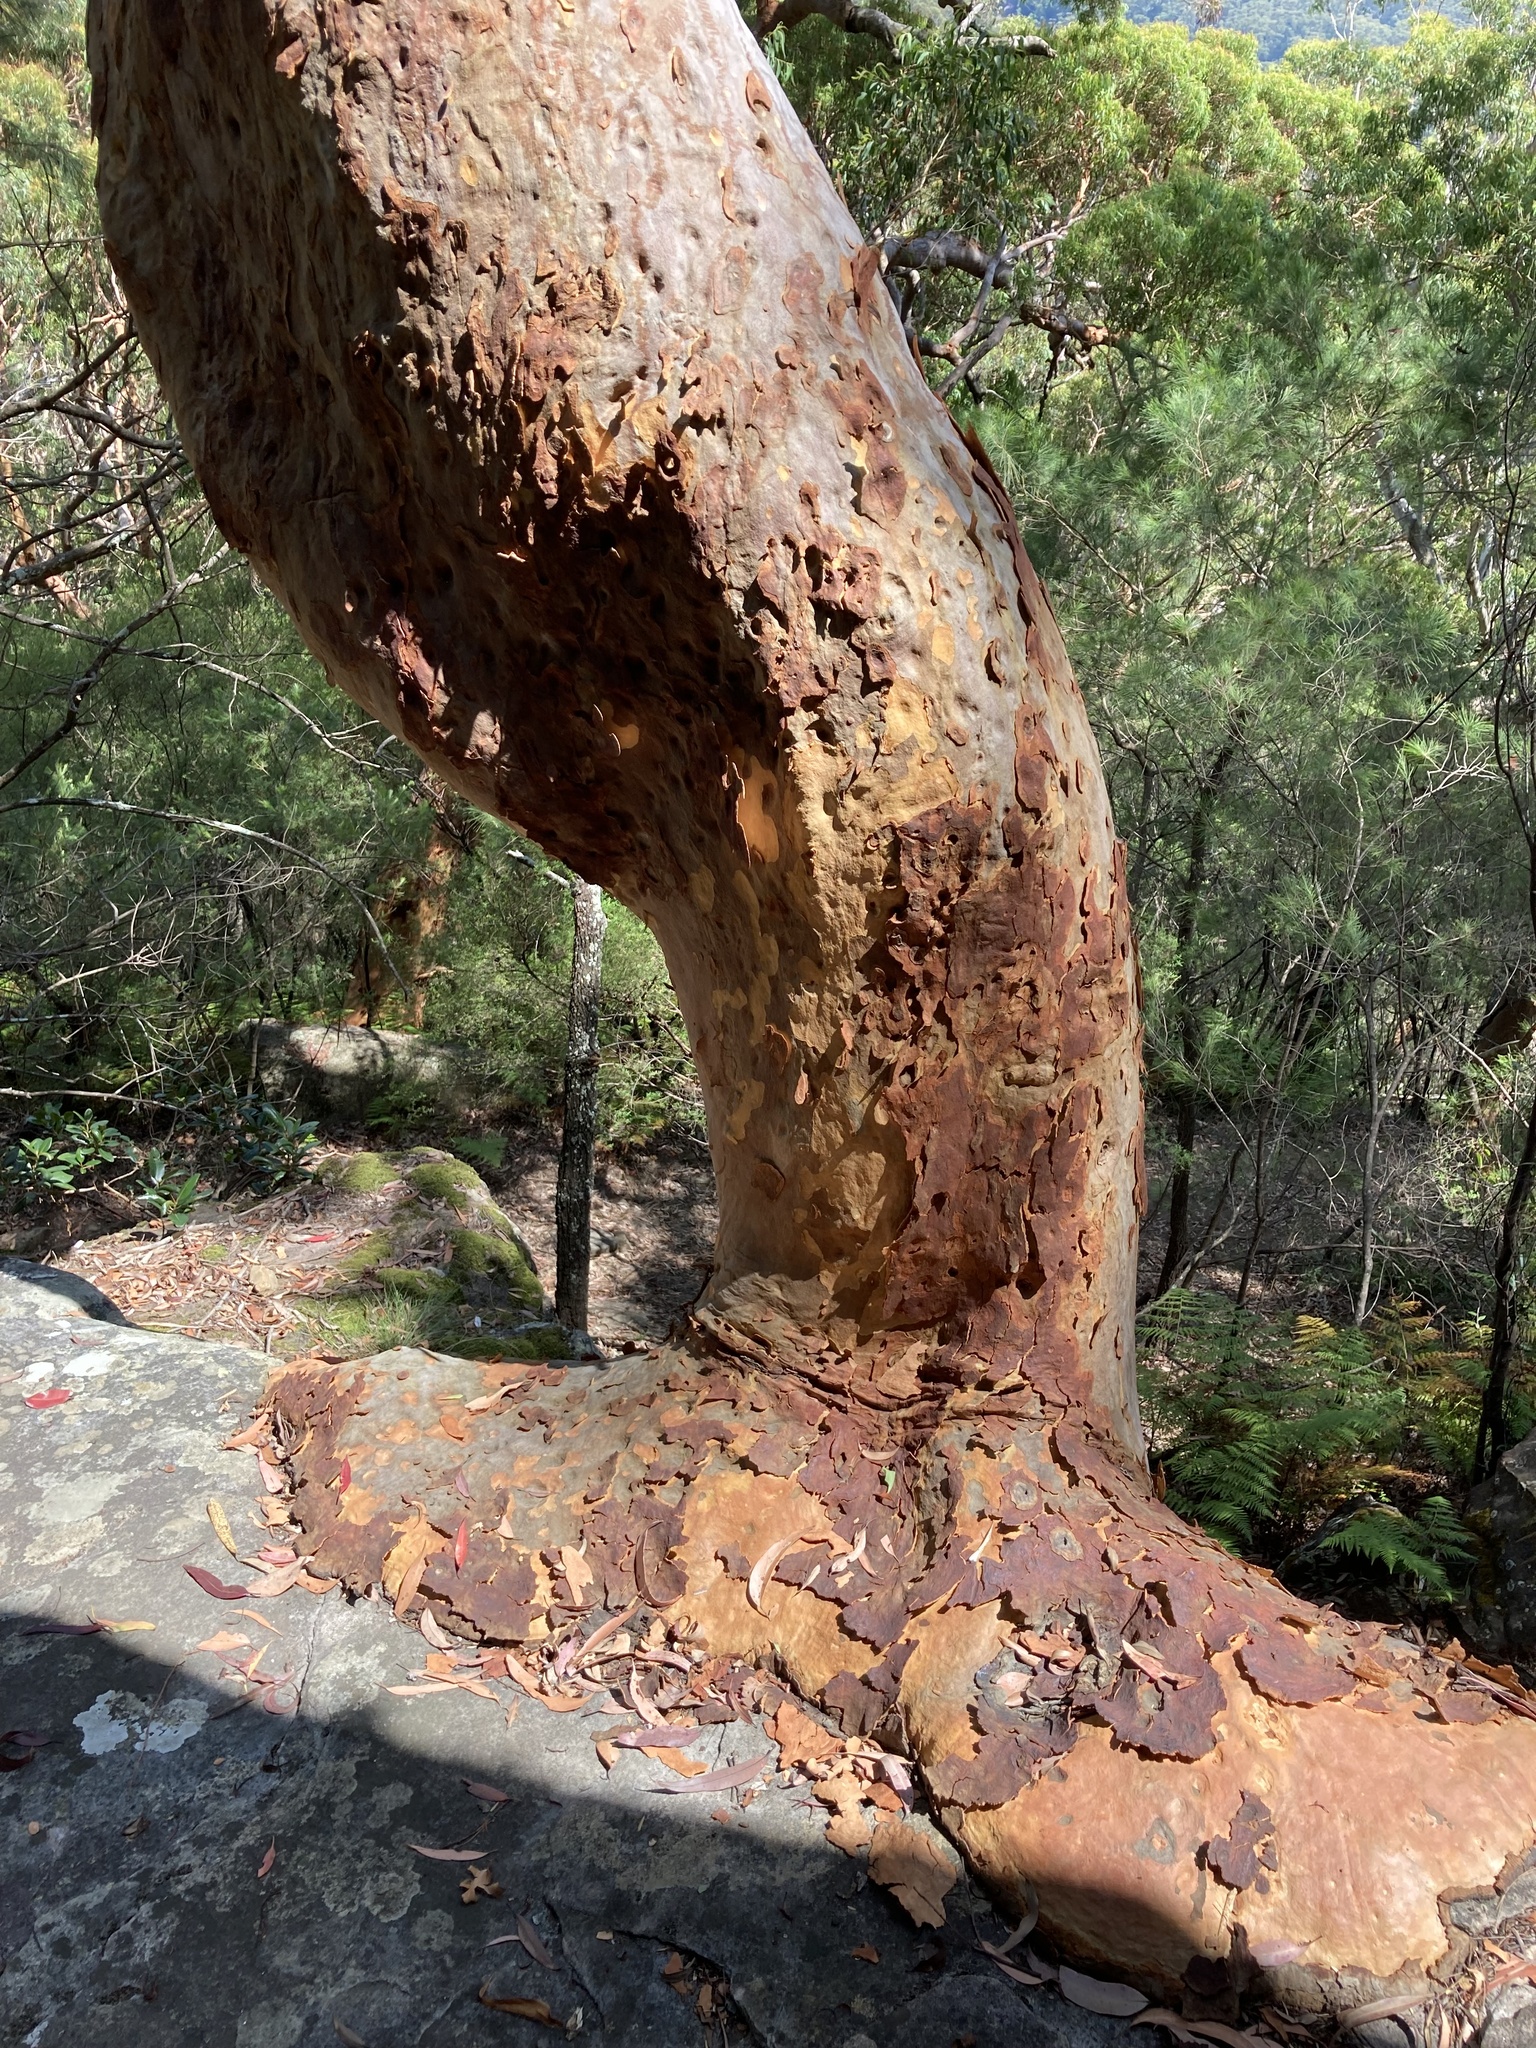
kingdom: Plantae
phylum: Tracheophyta
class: Magnoliopsida
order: Myrtales
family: Myrtaceae
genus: Angophora
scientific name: Angophora costata
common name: Gum myrtle
